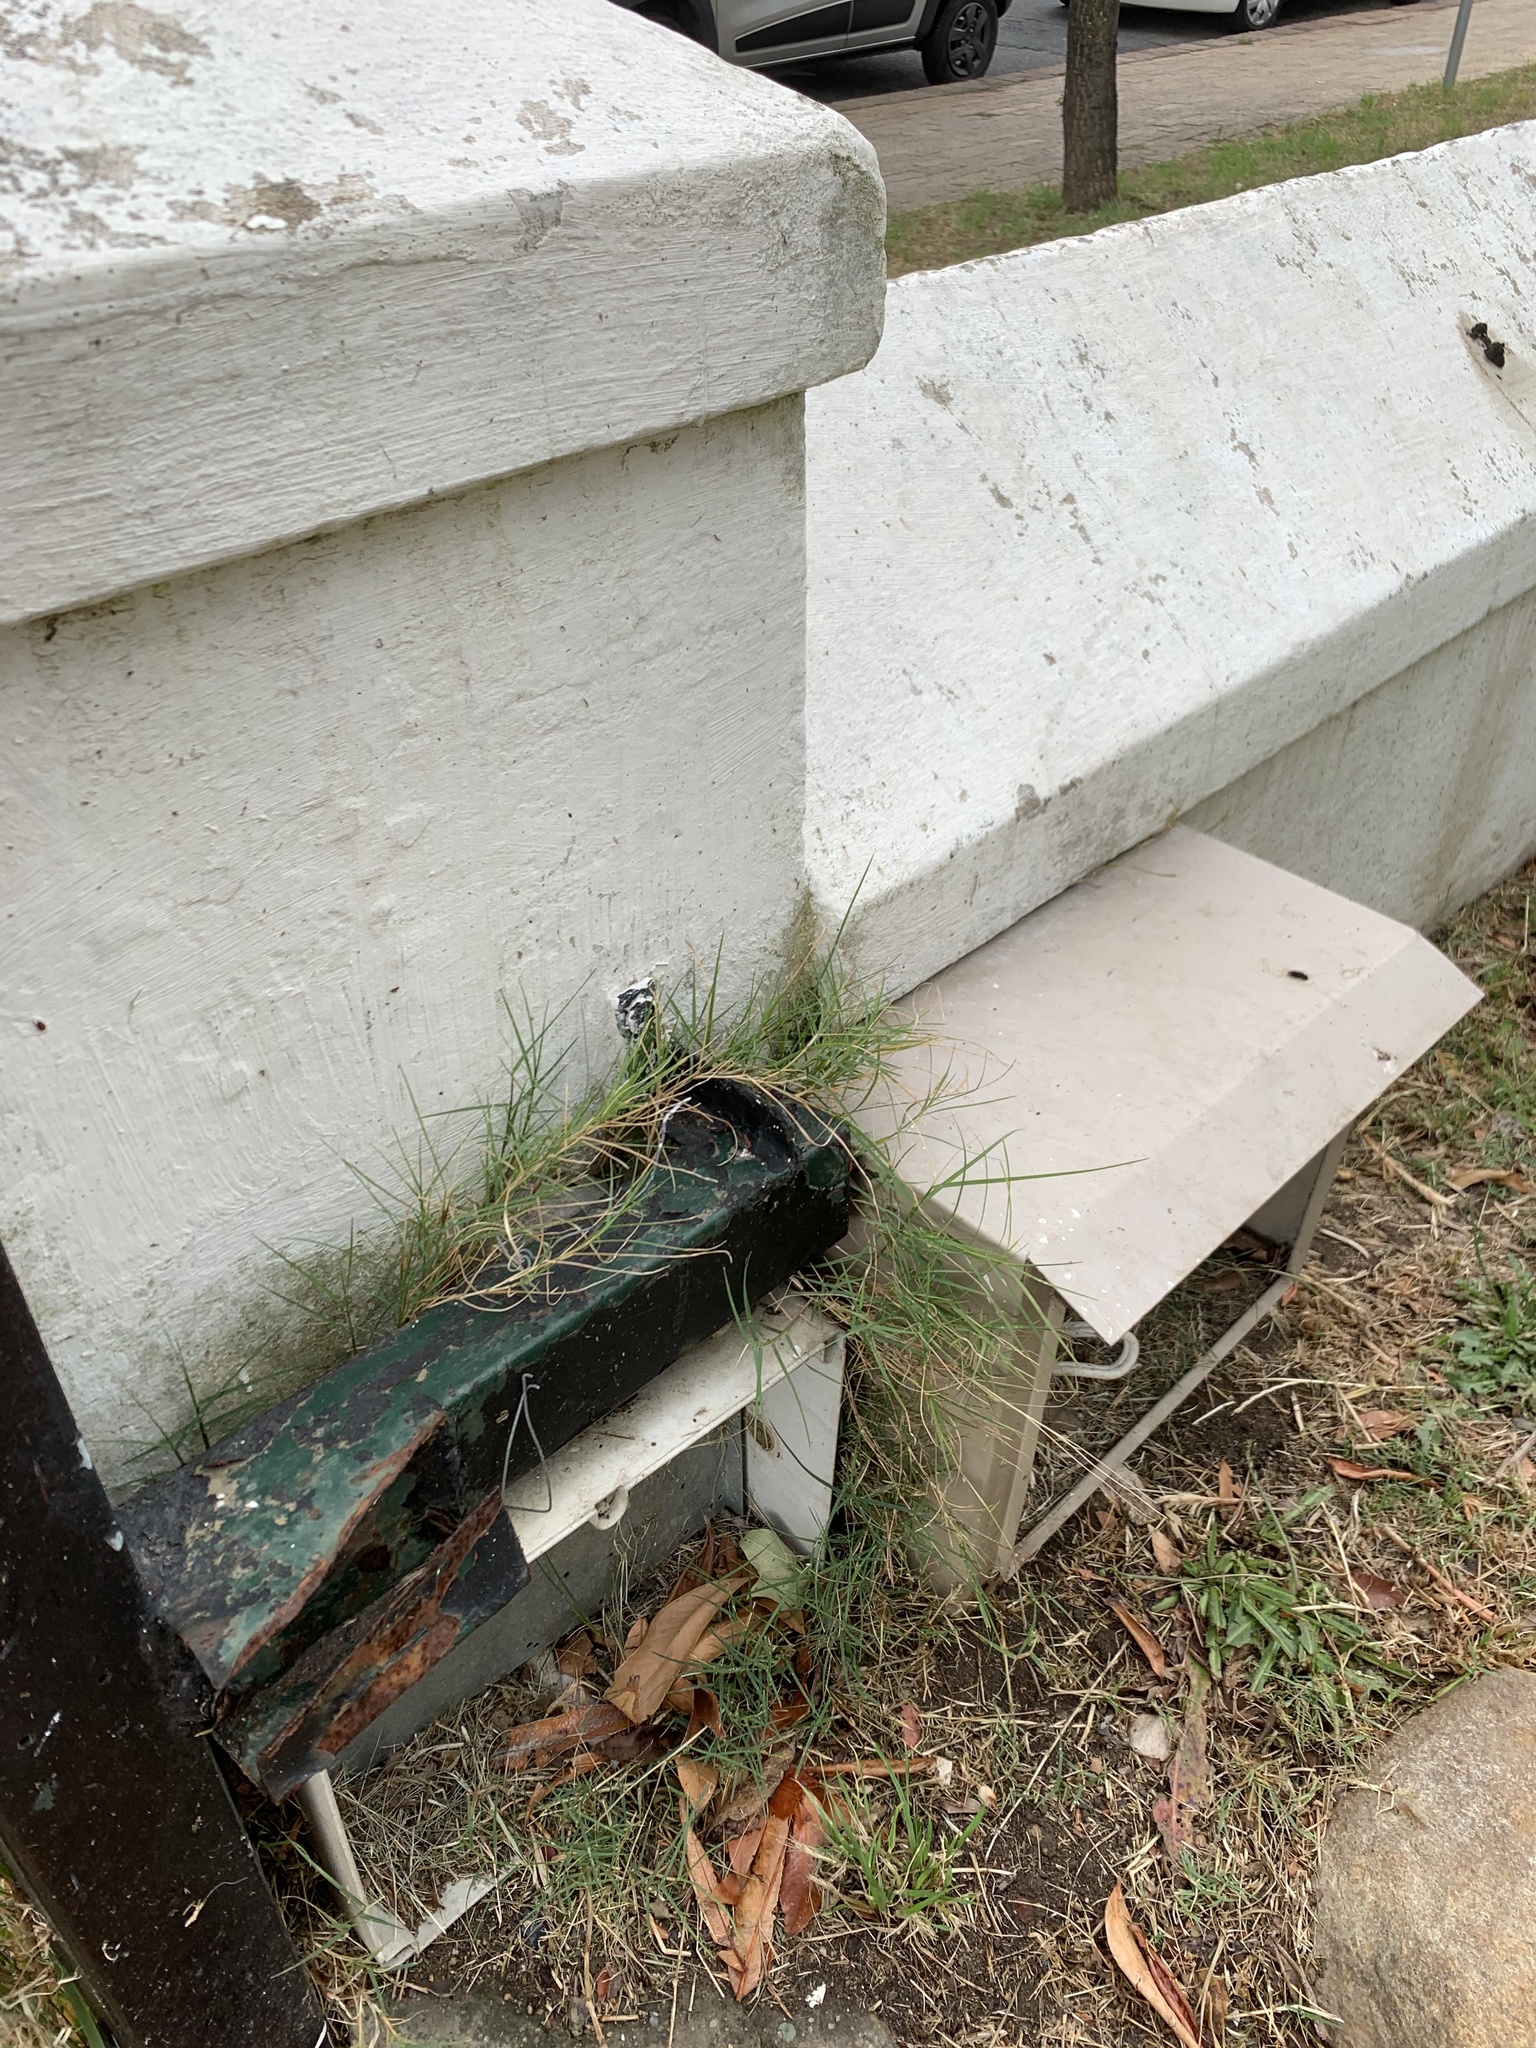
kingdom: Plantae
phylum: Tracheophyta
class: Liliopsida
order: Poales
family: Poaceae
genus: Cynodon
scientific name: Cynodon dactylon
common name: Bermuda grass
